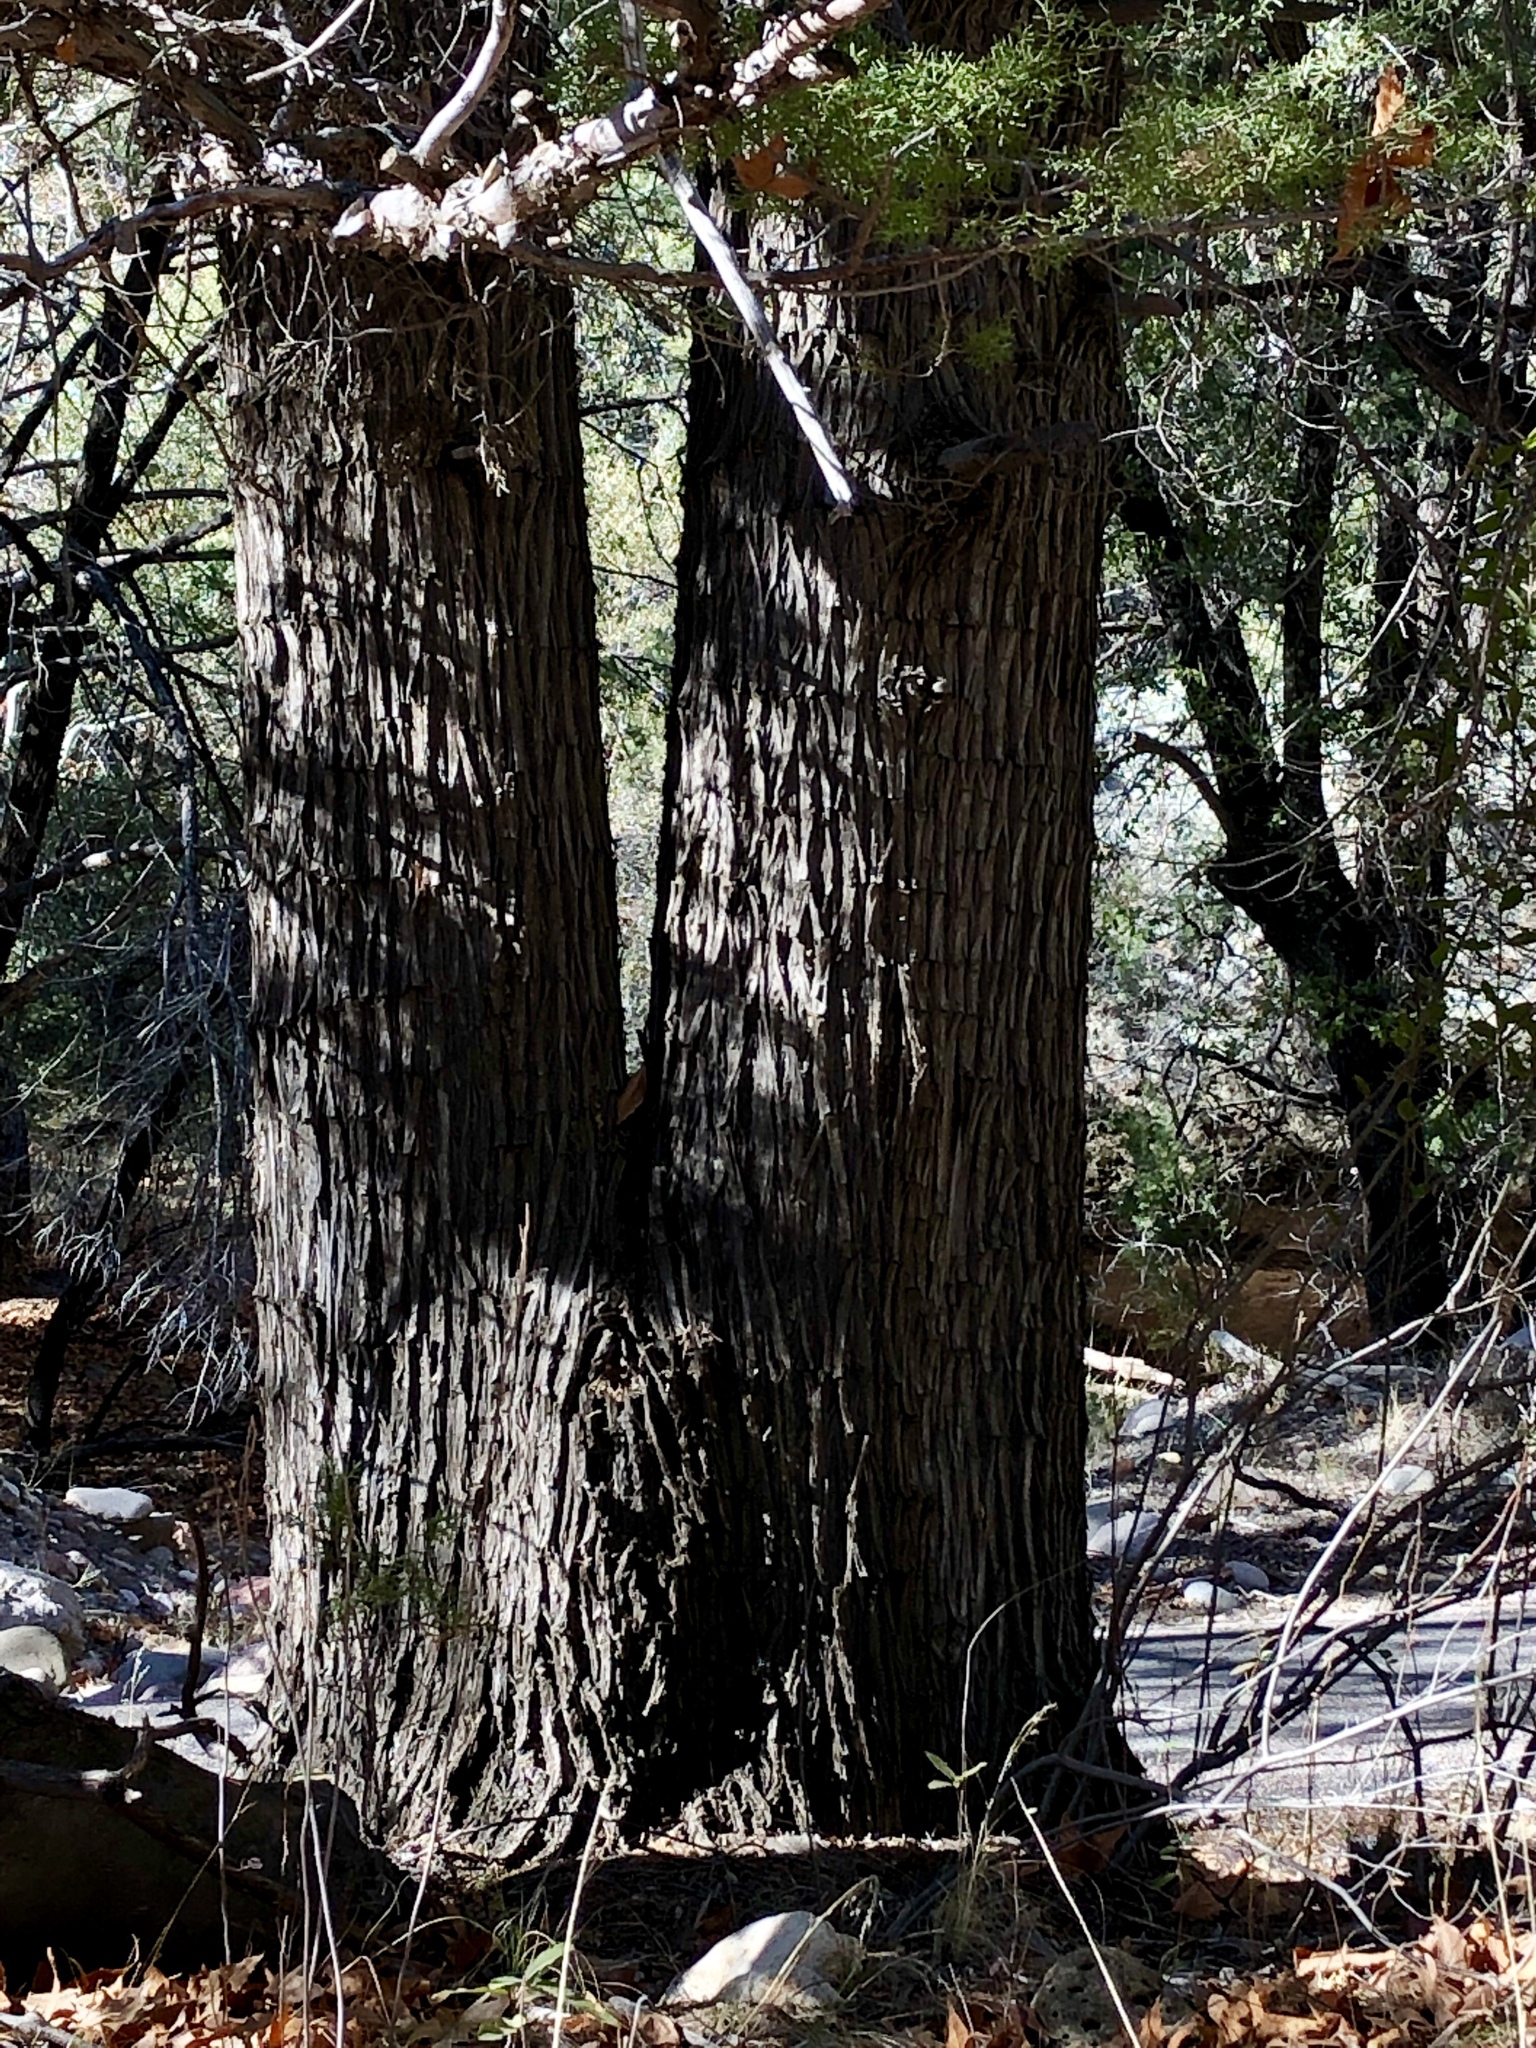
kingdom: Plantae
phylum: Tracheophyta
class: Pinopsida
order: Pinales
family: Cupressaceae
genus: Cupressus
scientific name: Cupressus arizonica
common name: Arizona cypress
